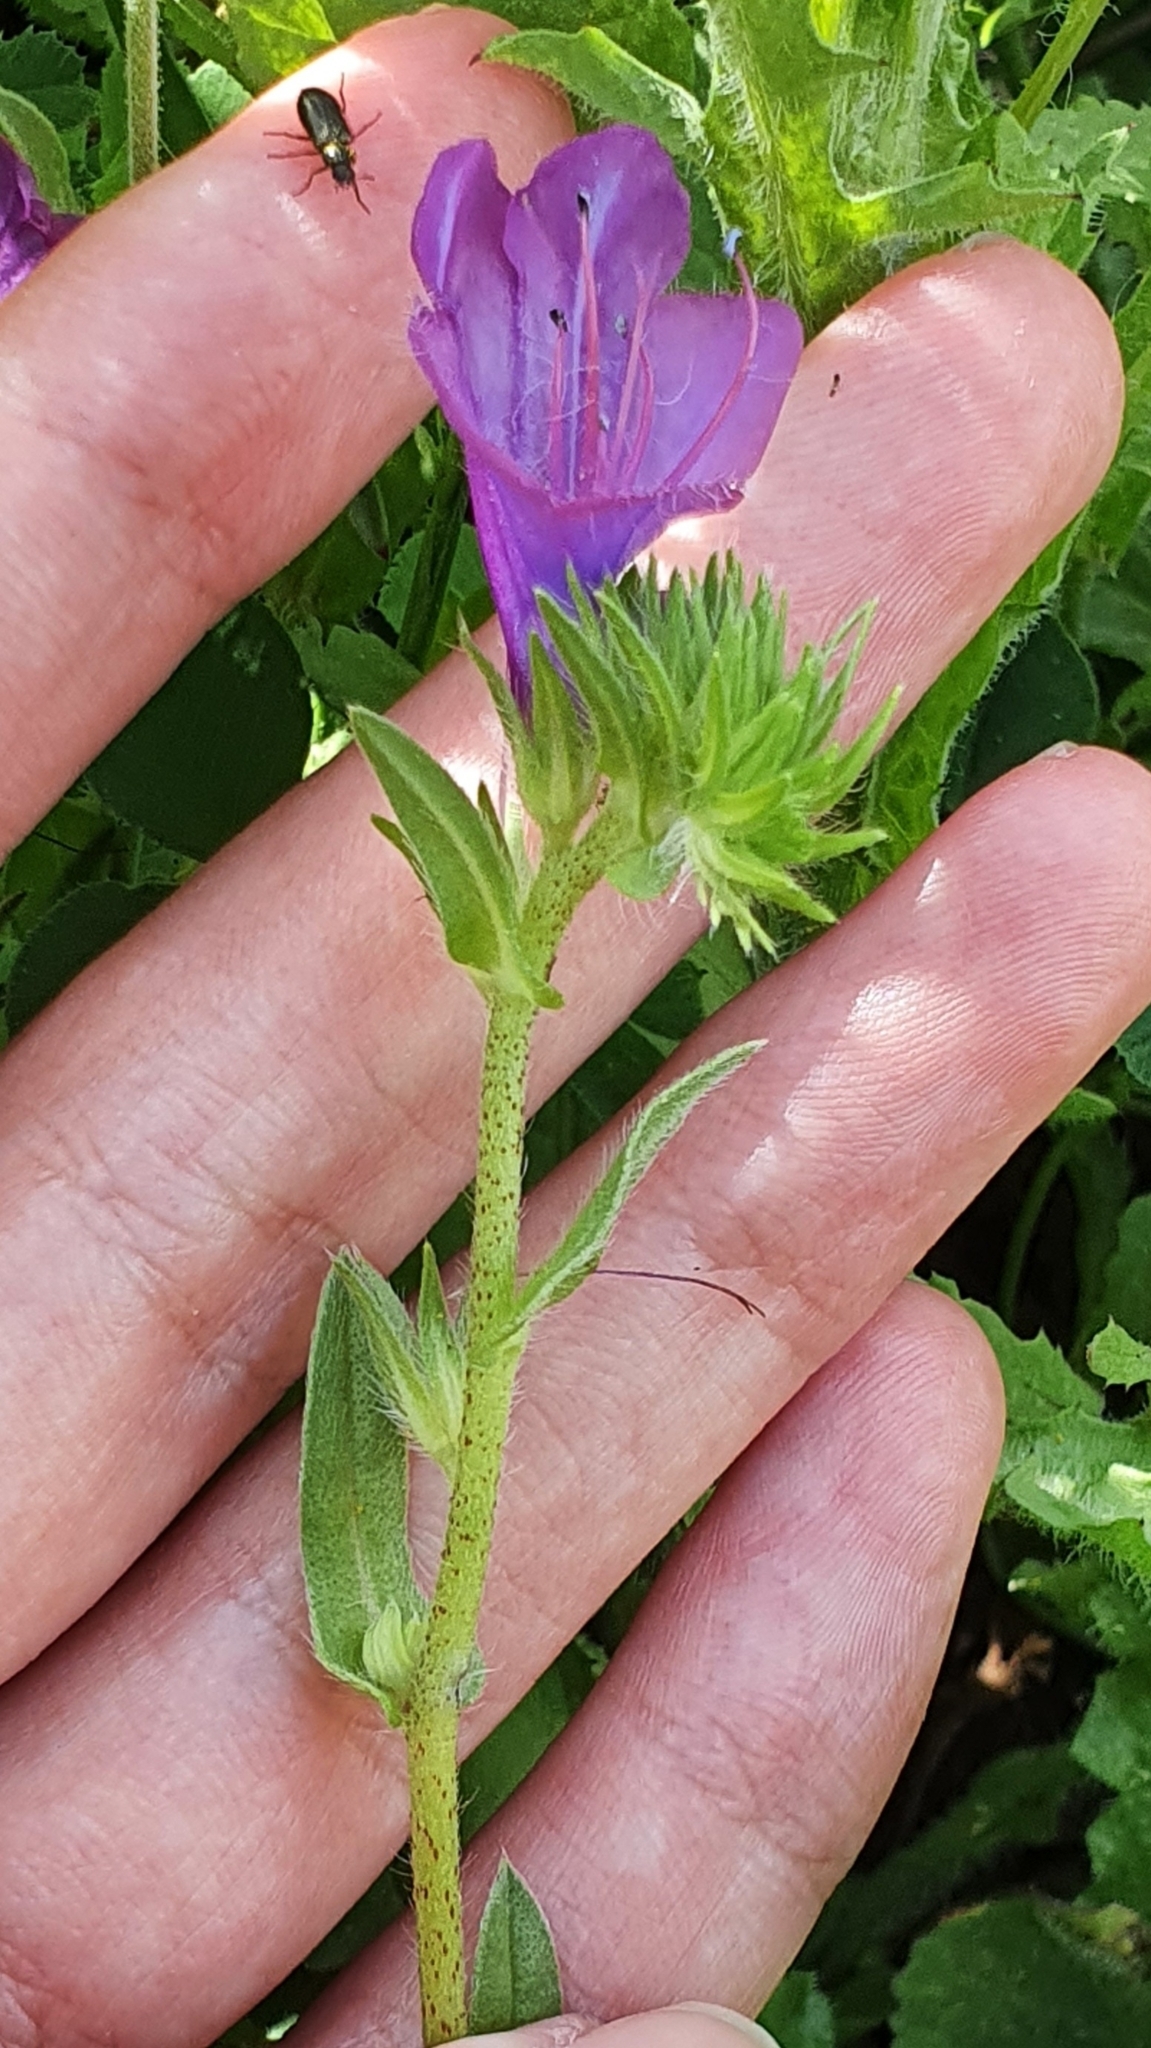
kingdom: Plantae
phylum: Tracheophyta
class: Magnoliopsida
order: Boraginales
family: Boraginaceae
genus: Echium
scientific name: Echium plantagineum
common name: Purple viper's-bugloss
